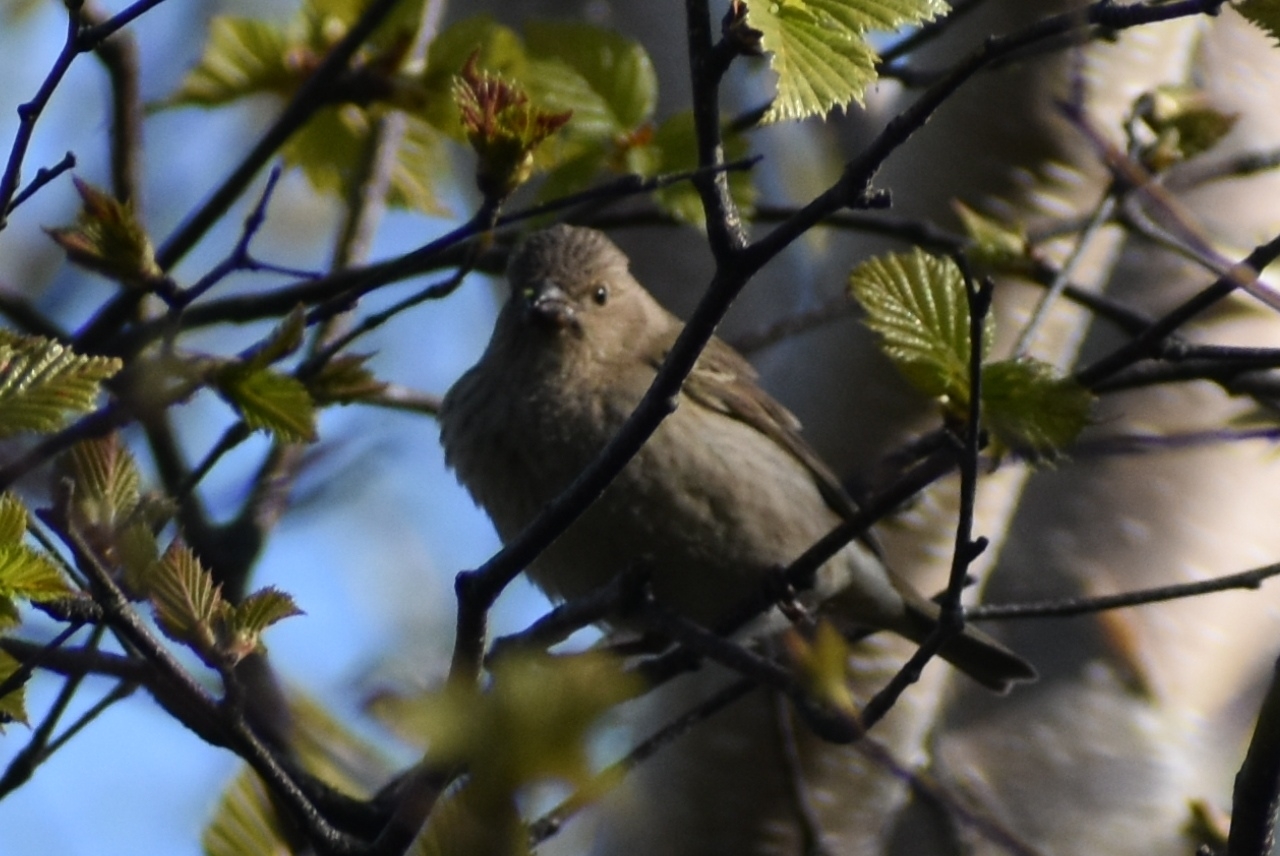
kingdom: Animalia
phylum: Chordata
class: Aves
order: Passeriformes
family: Fringillidae
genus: Carpodacus
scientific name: Carpodacus erythrinus
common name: Common rosefinch
